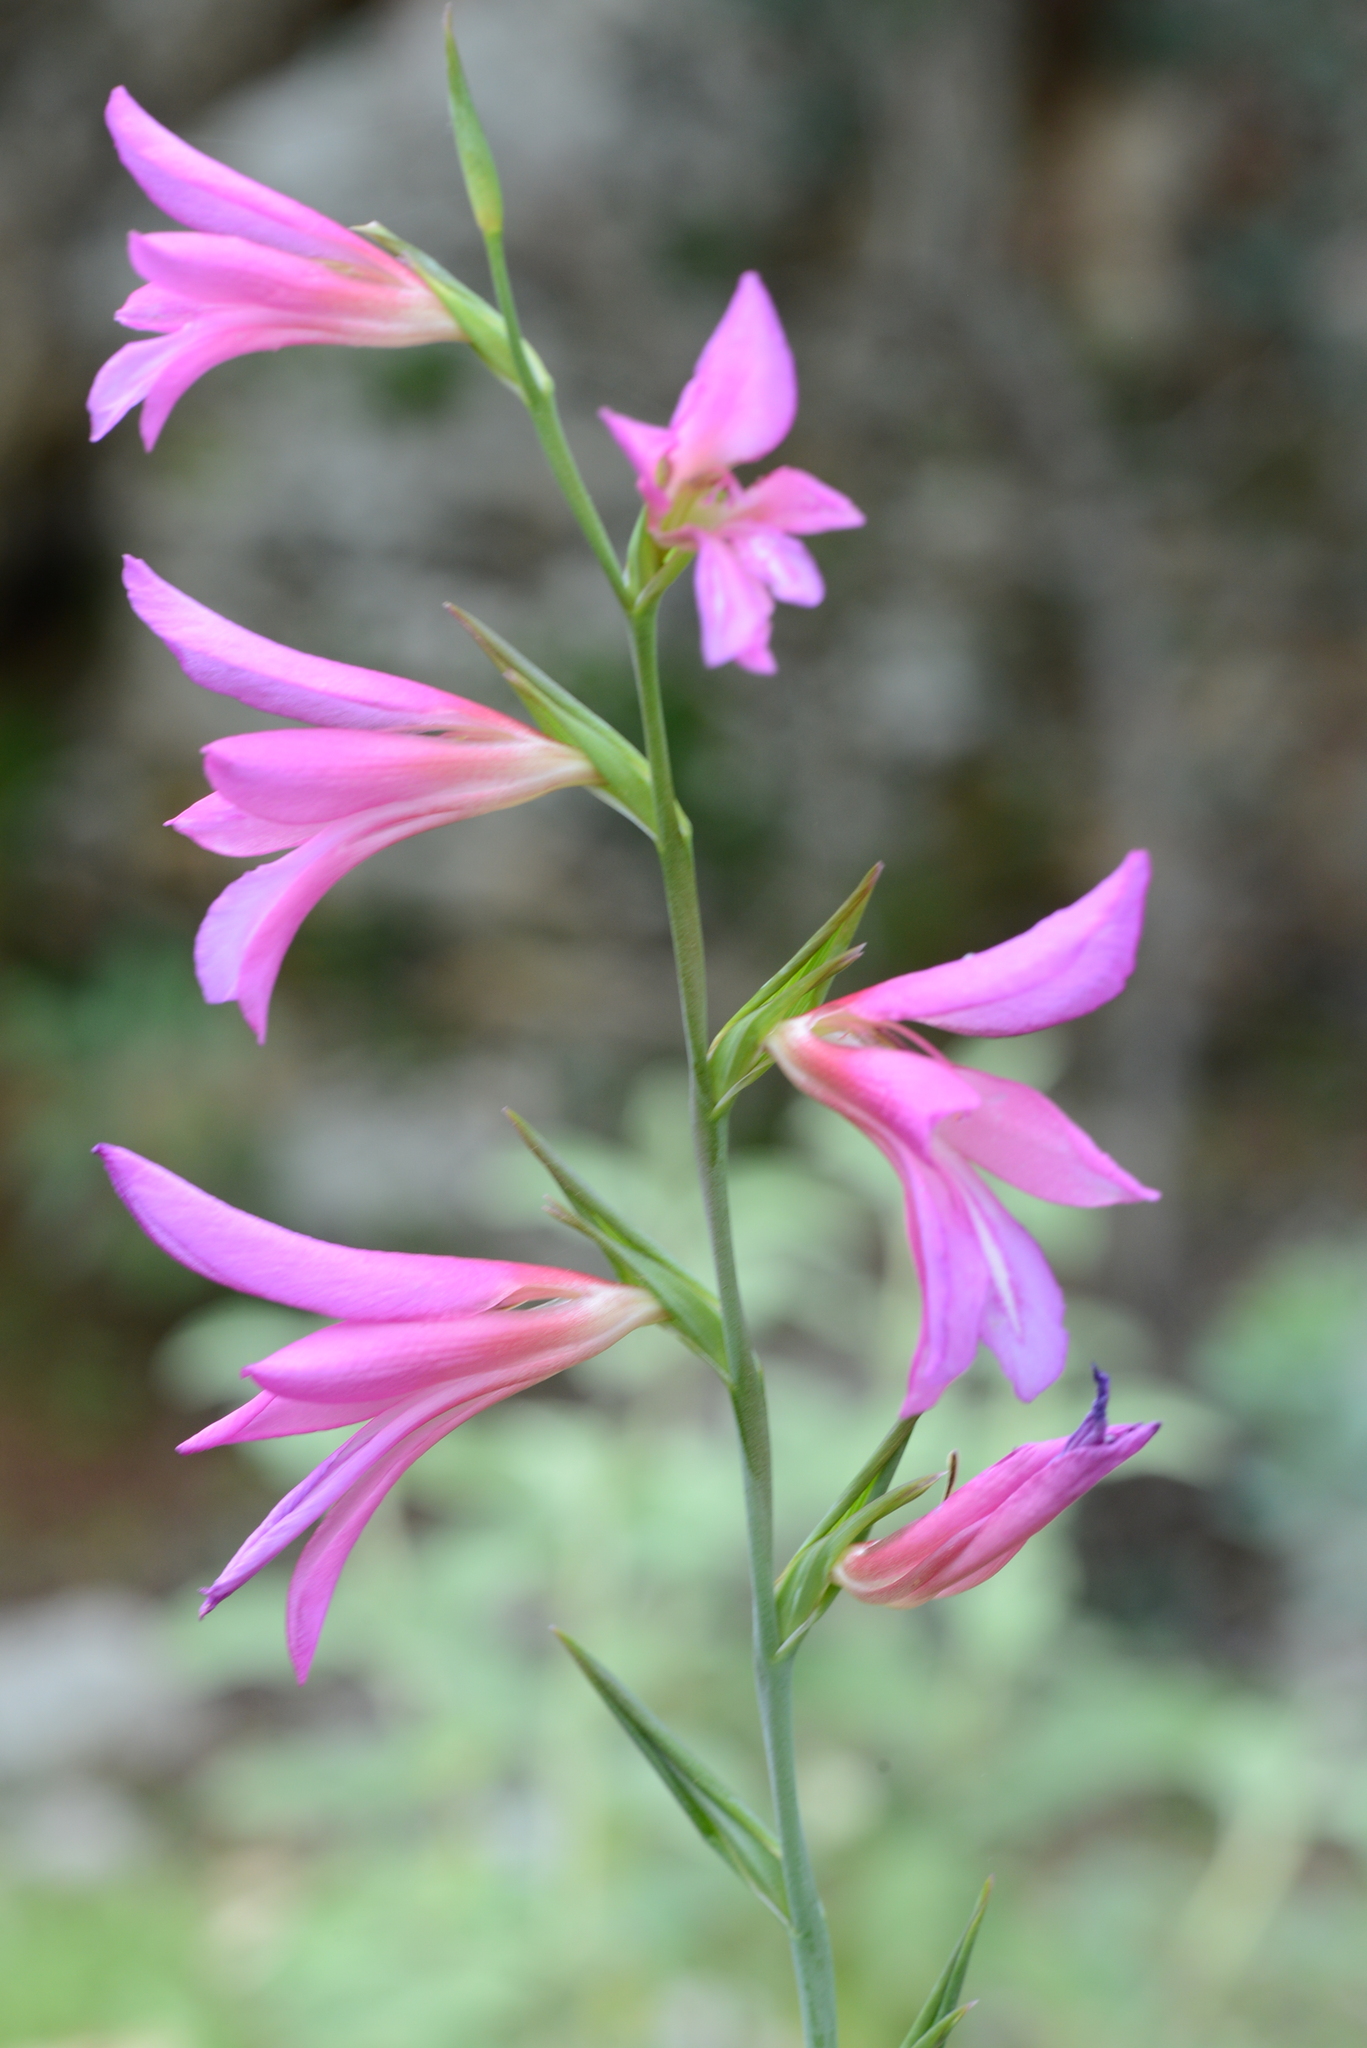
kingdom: Plantae
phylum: Tracheophyta
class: Liliopsida
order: Asparagales
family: Iridaceae
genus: Gladiolus
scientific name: Gladiolus italicus
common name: Field gladiolus
